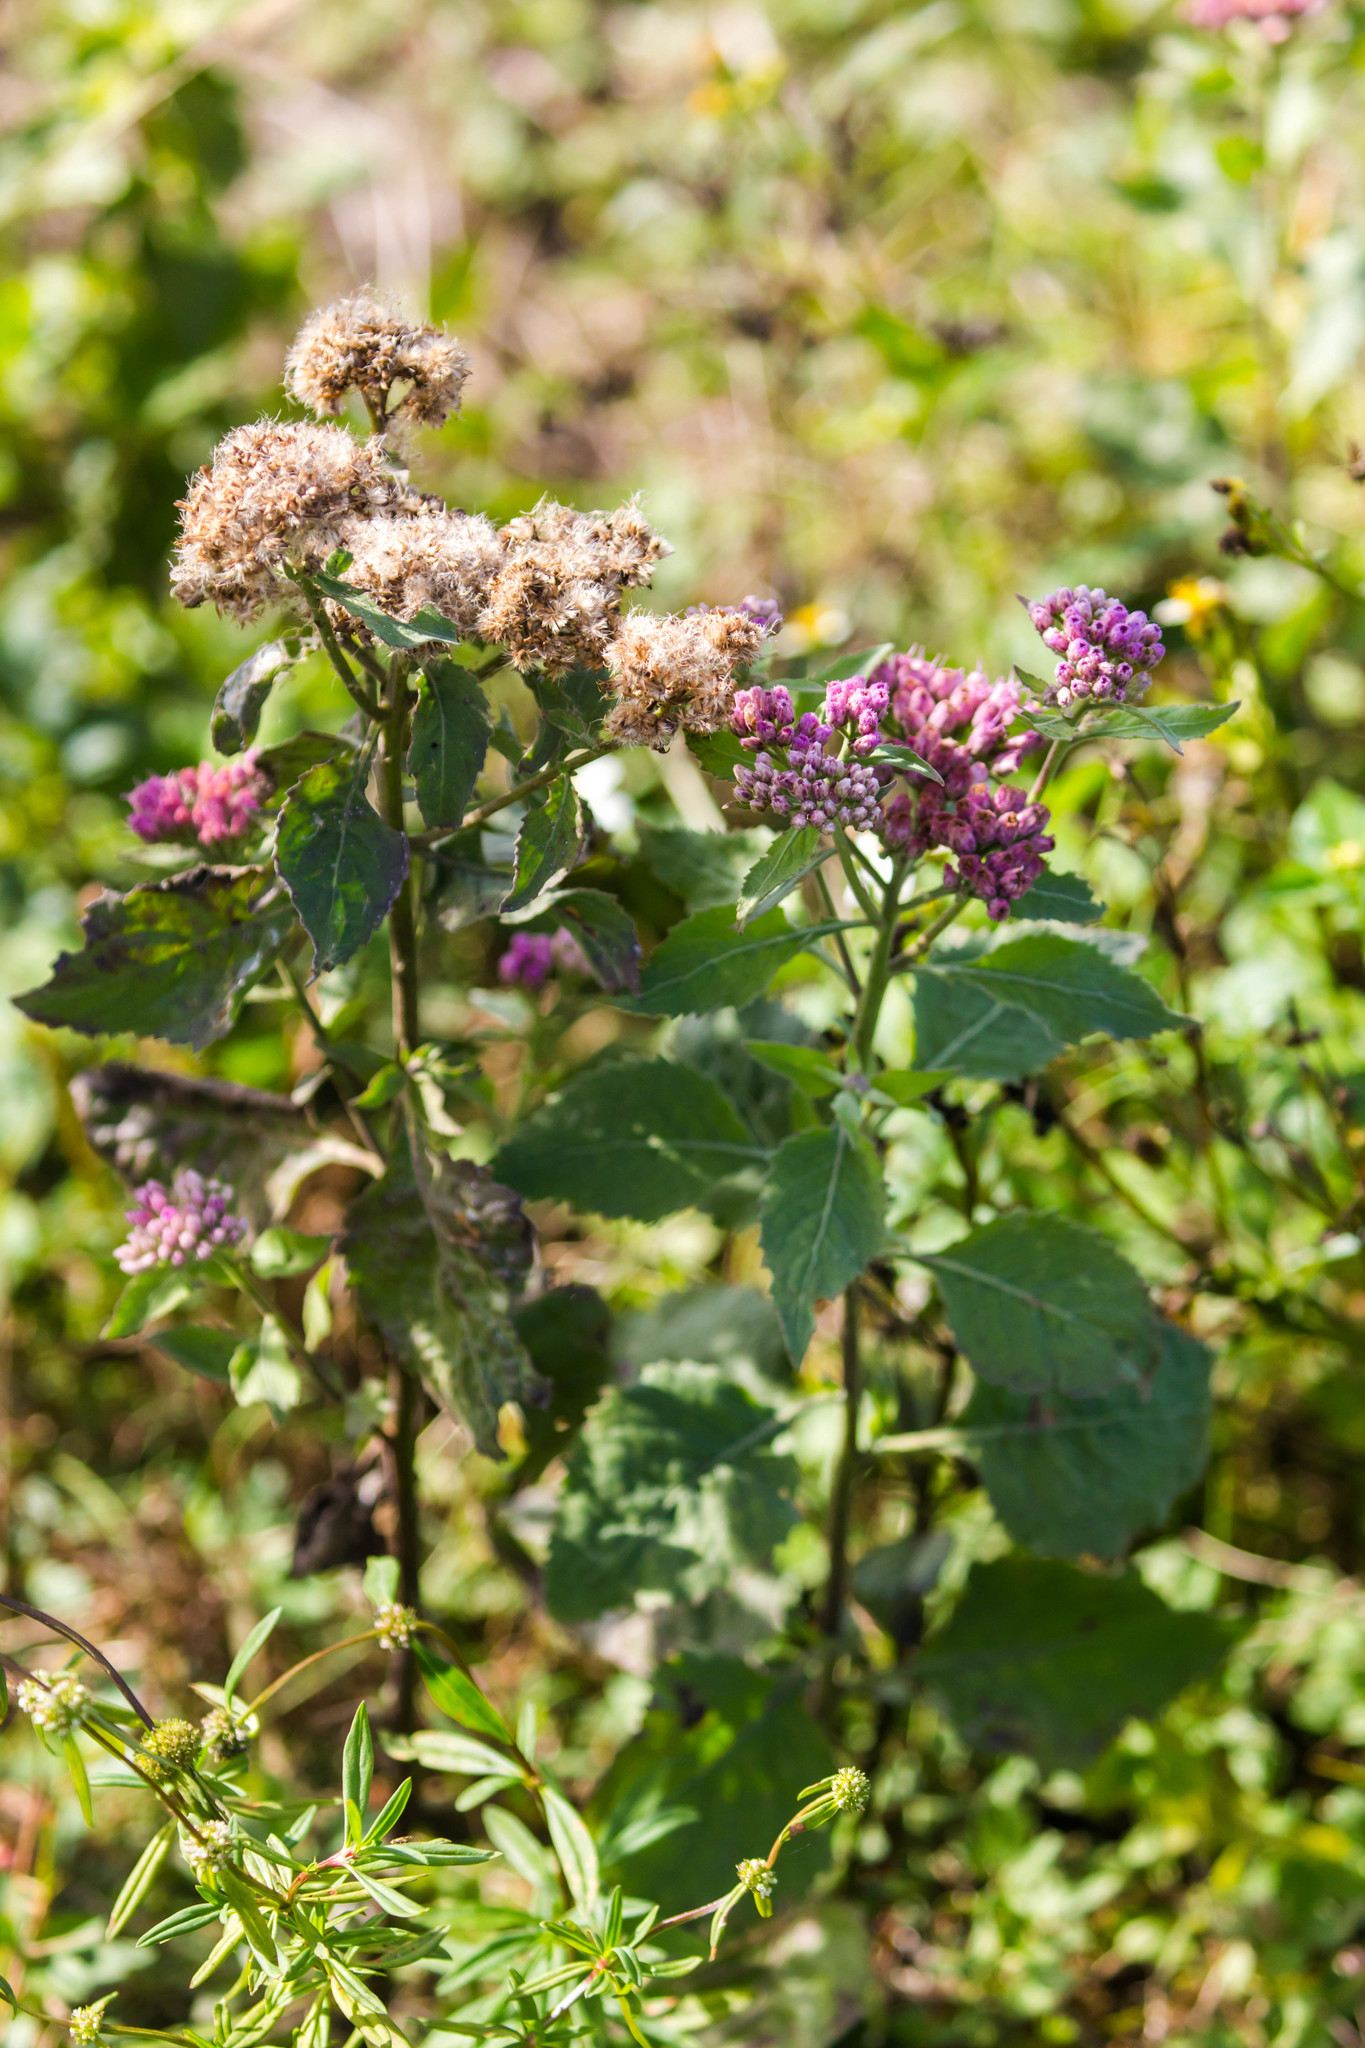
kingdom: Plantae
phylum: Tracheophyta
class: Magnoliopsida
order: Asterales
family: Asteraceae
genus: Pluchea
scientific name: Pluchea odorata
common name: Saltmarsh fleabane
